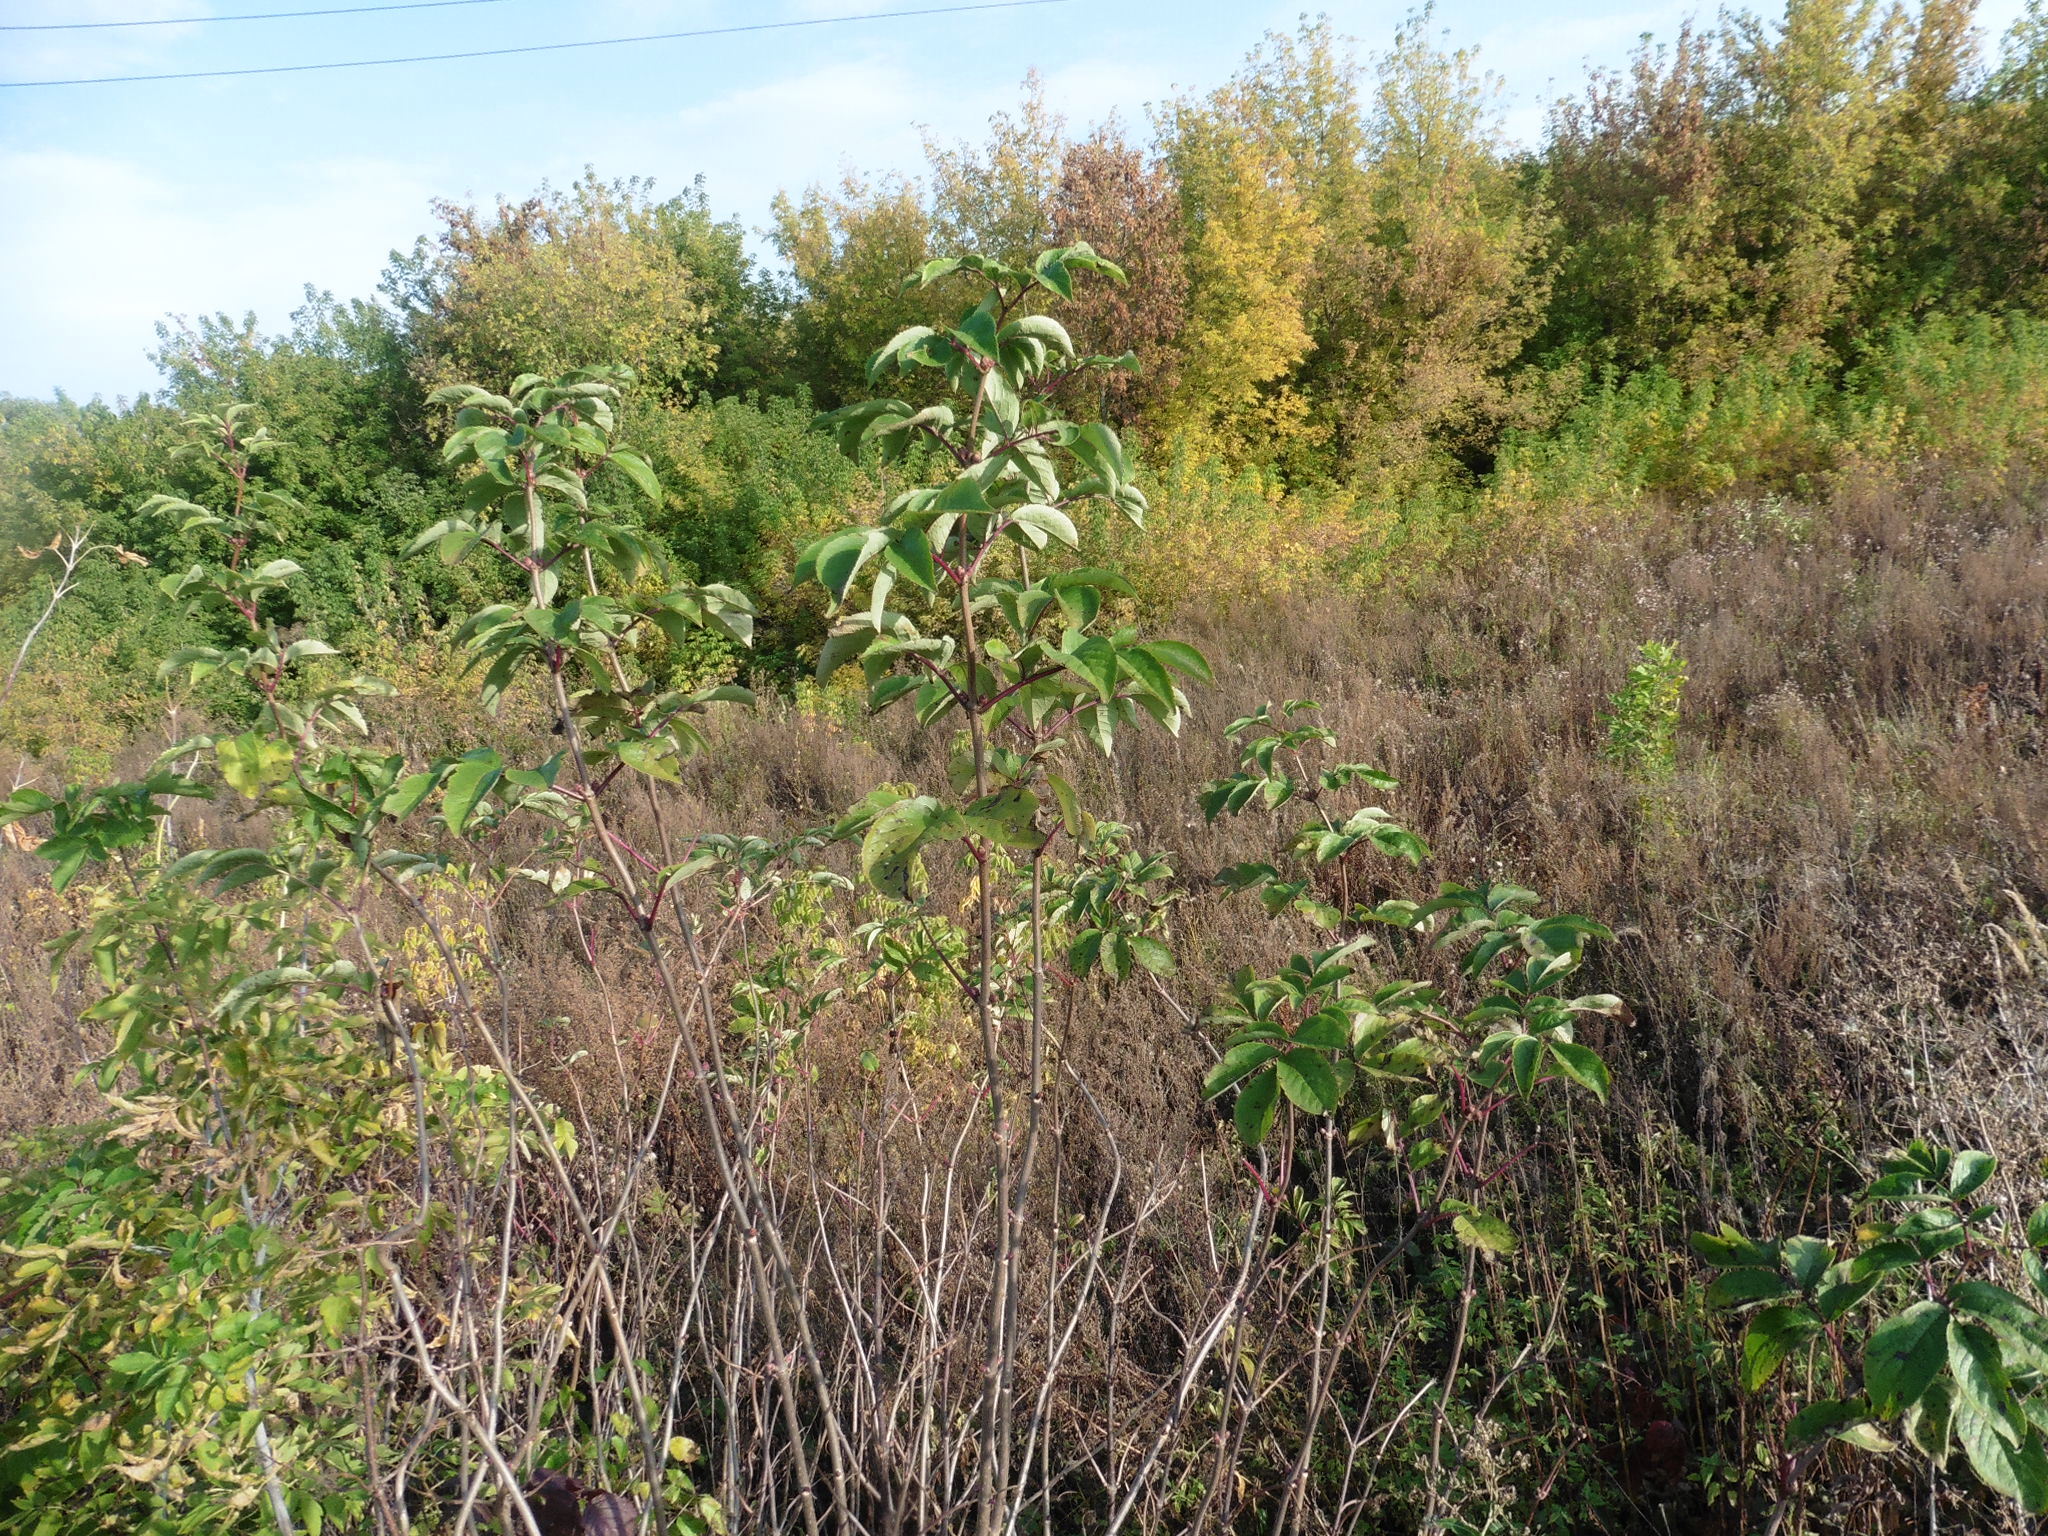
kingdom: Plantae
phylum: Tracheophyta
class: Magnoliopsida
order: Dipsacales
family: Viburnaceae
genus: Sambucus
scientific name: Sambucus racemosa
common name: Red-berried elder
